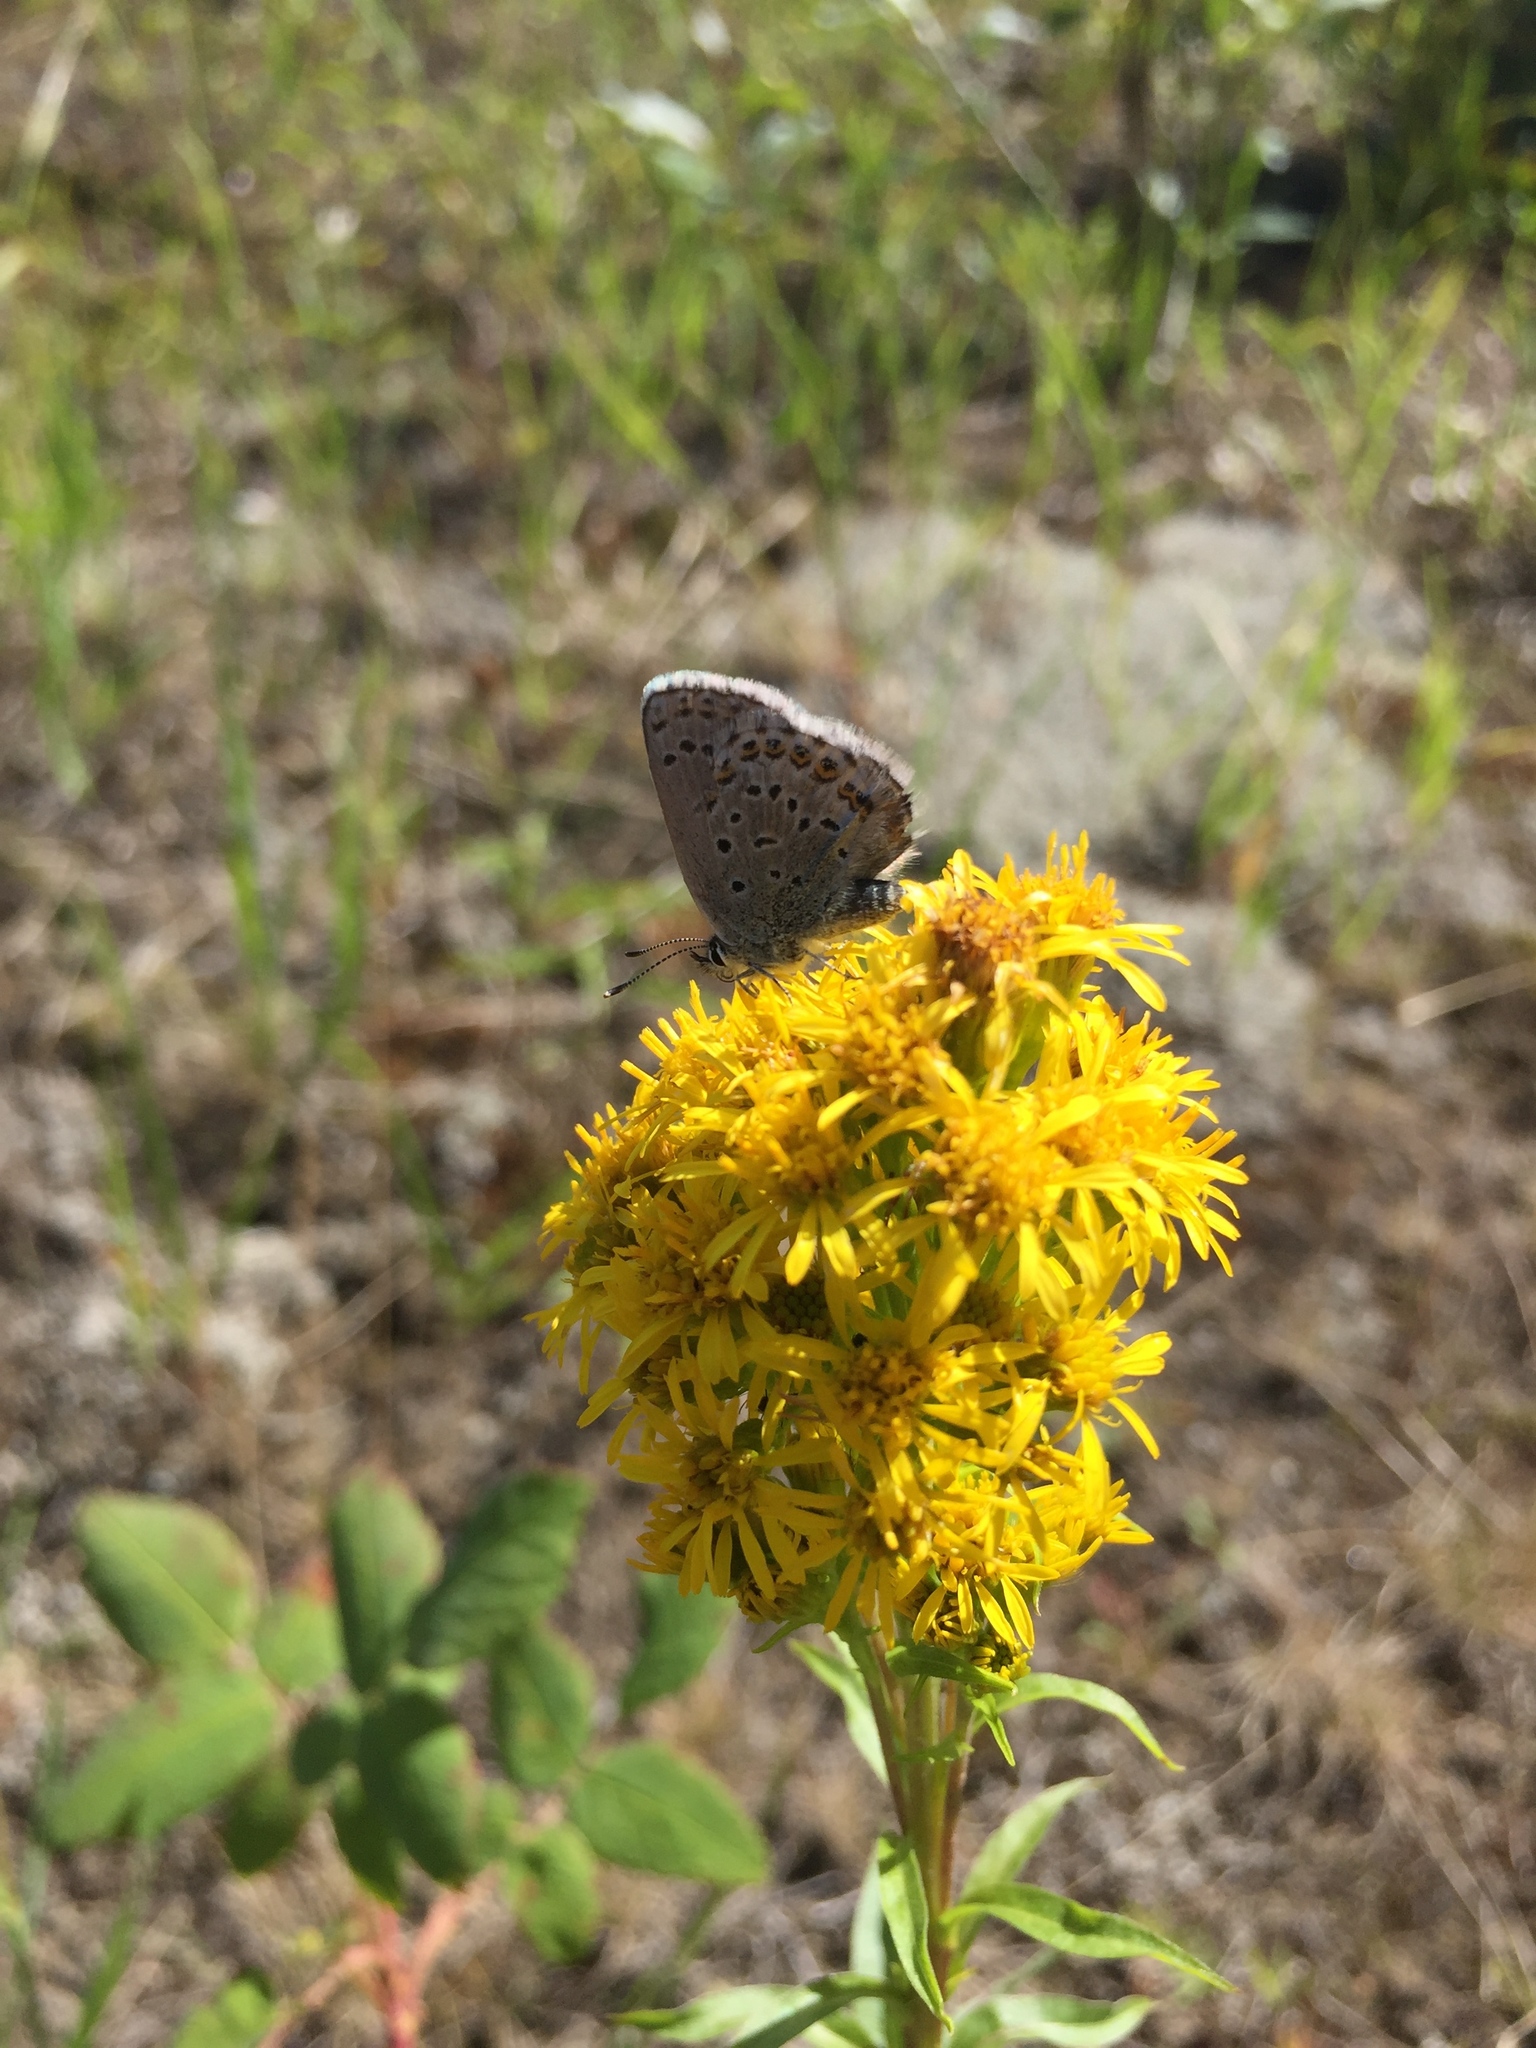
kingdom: Animalia
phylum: Arthropoda
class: Insecta
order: Lepidoptera
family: Lycaenidae
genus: Lycaeides
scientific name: Lycaeides idas
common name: Northern blue
